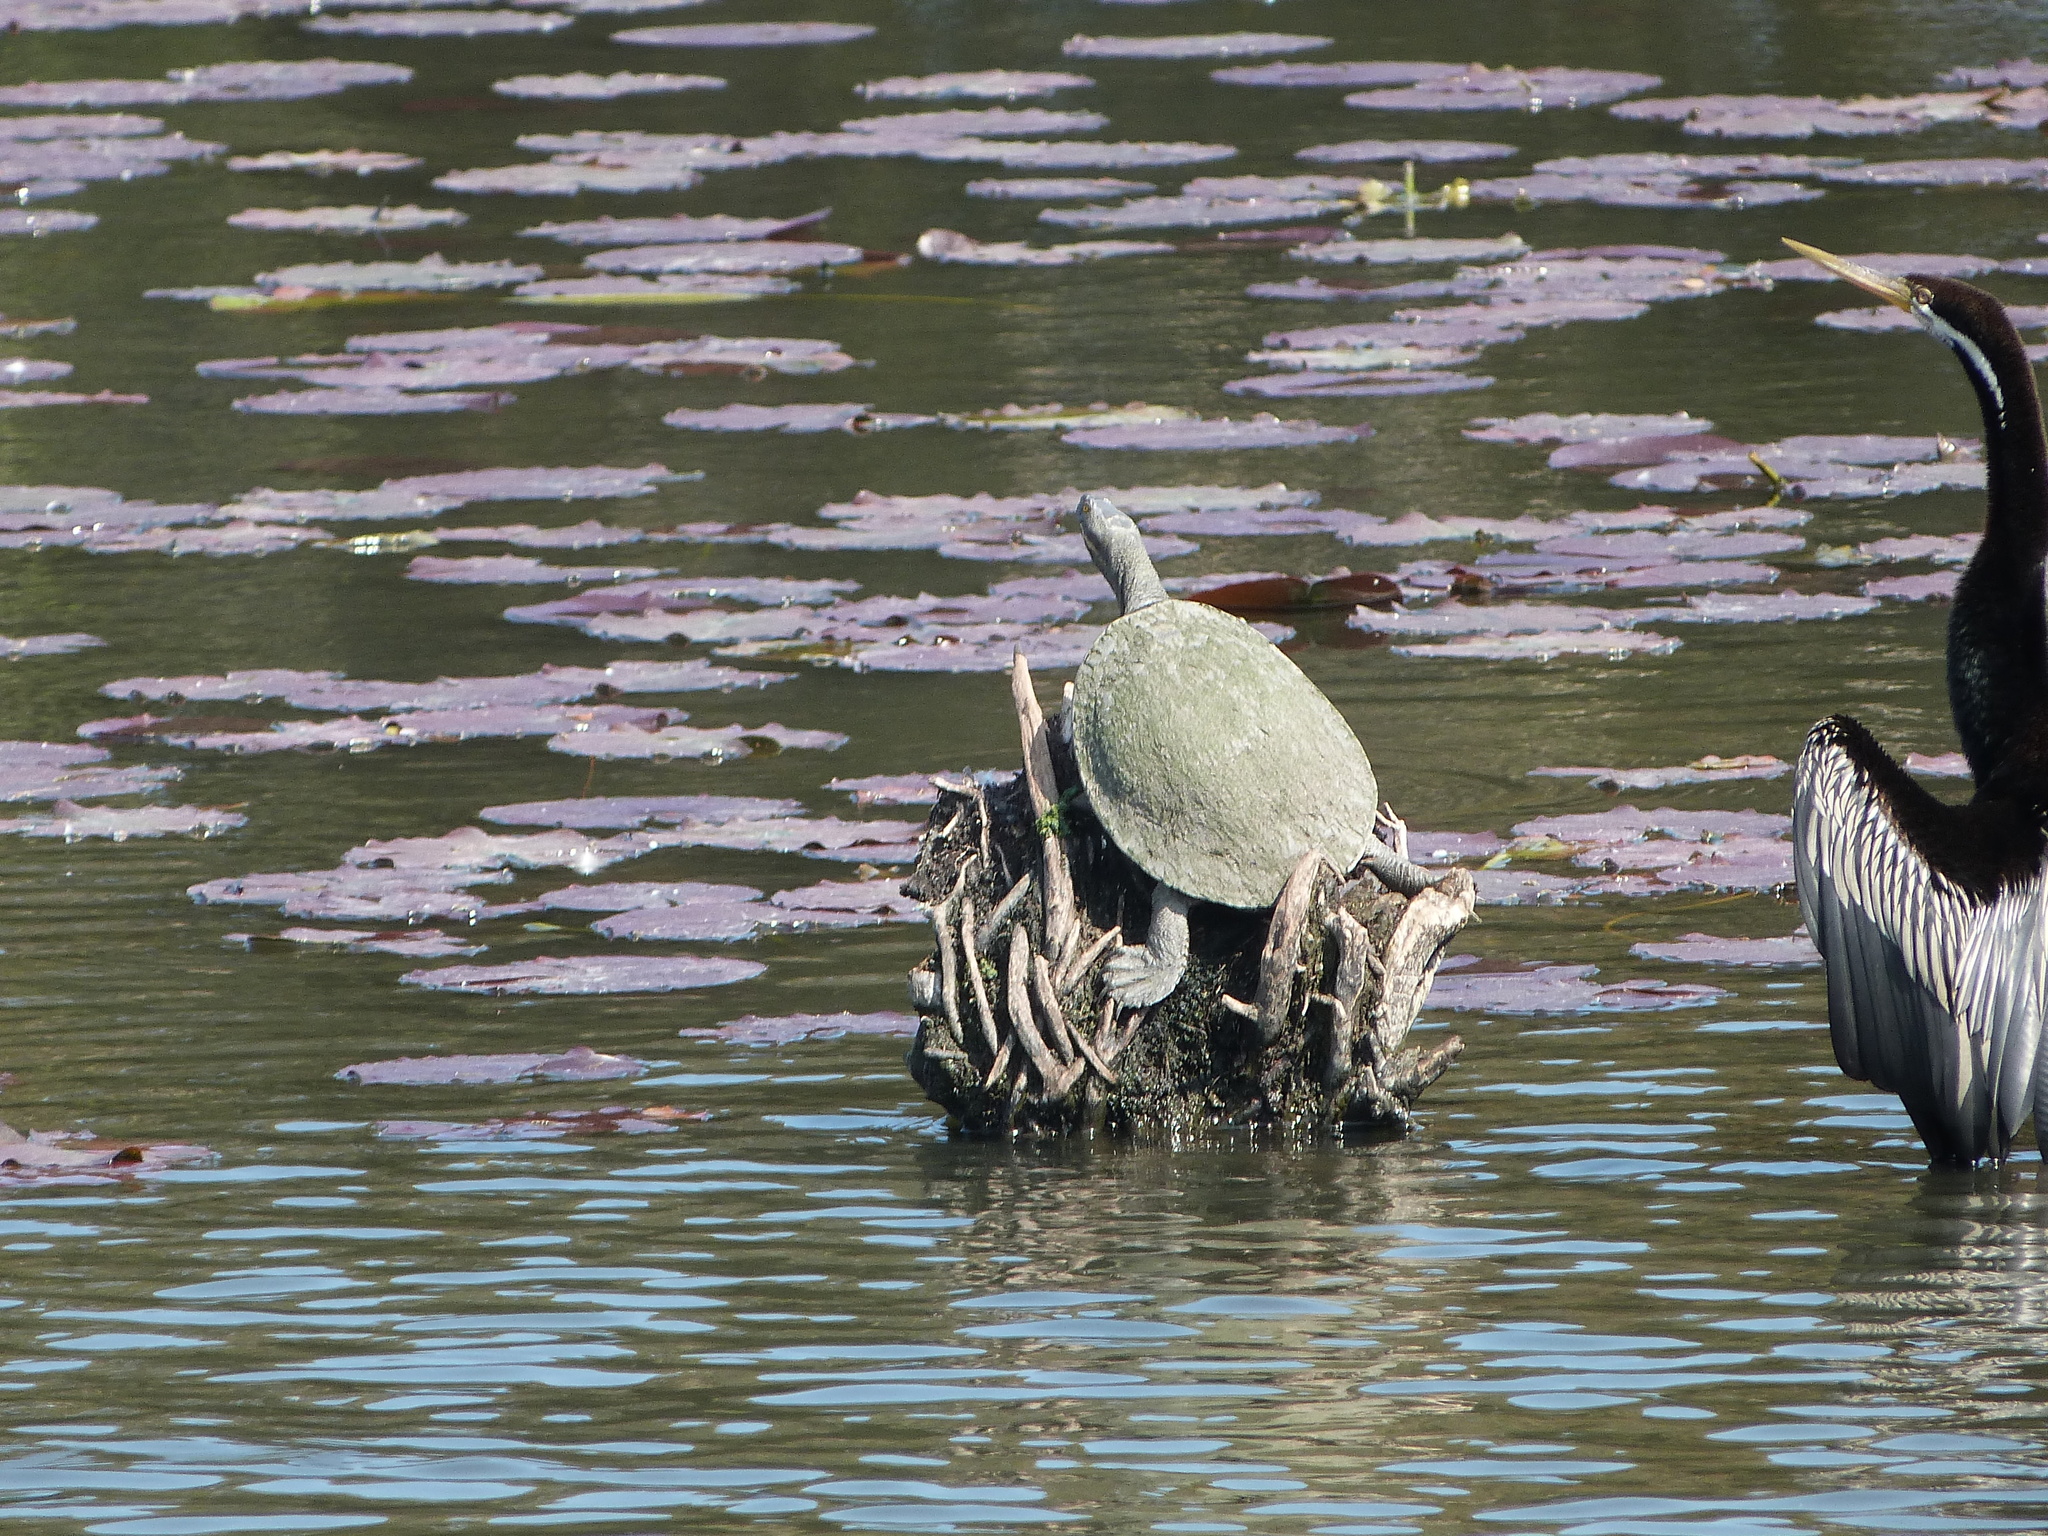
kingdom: Animalia
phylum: Chordata
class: Testudines
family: Chelidae
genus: Emydura
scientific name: Emydura macquarii
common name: Murray river turtle
